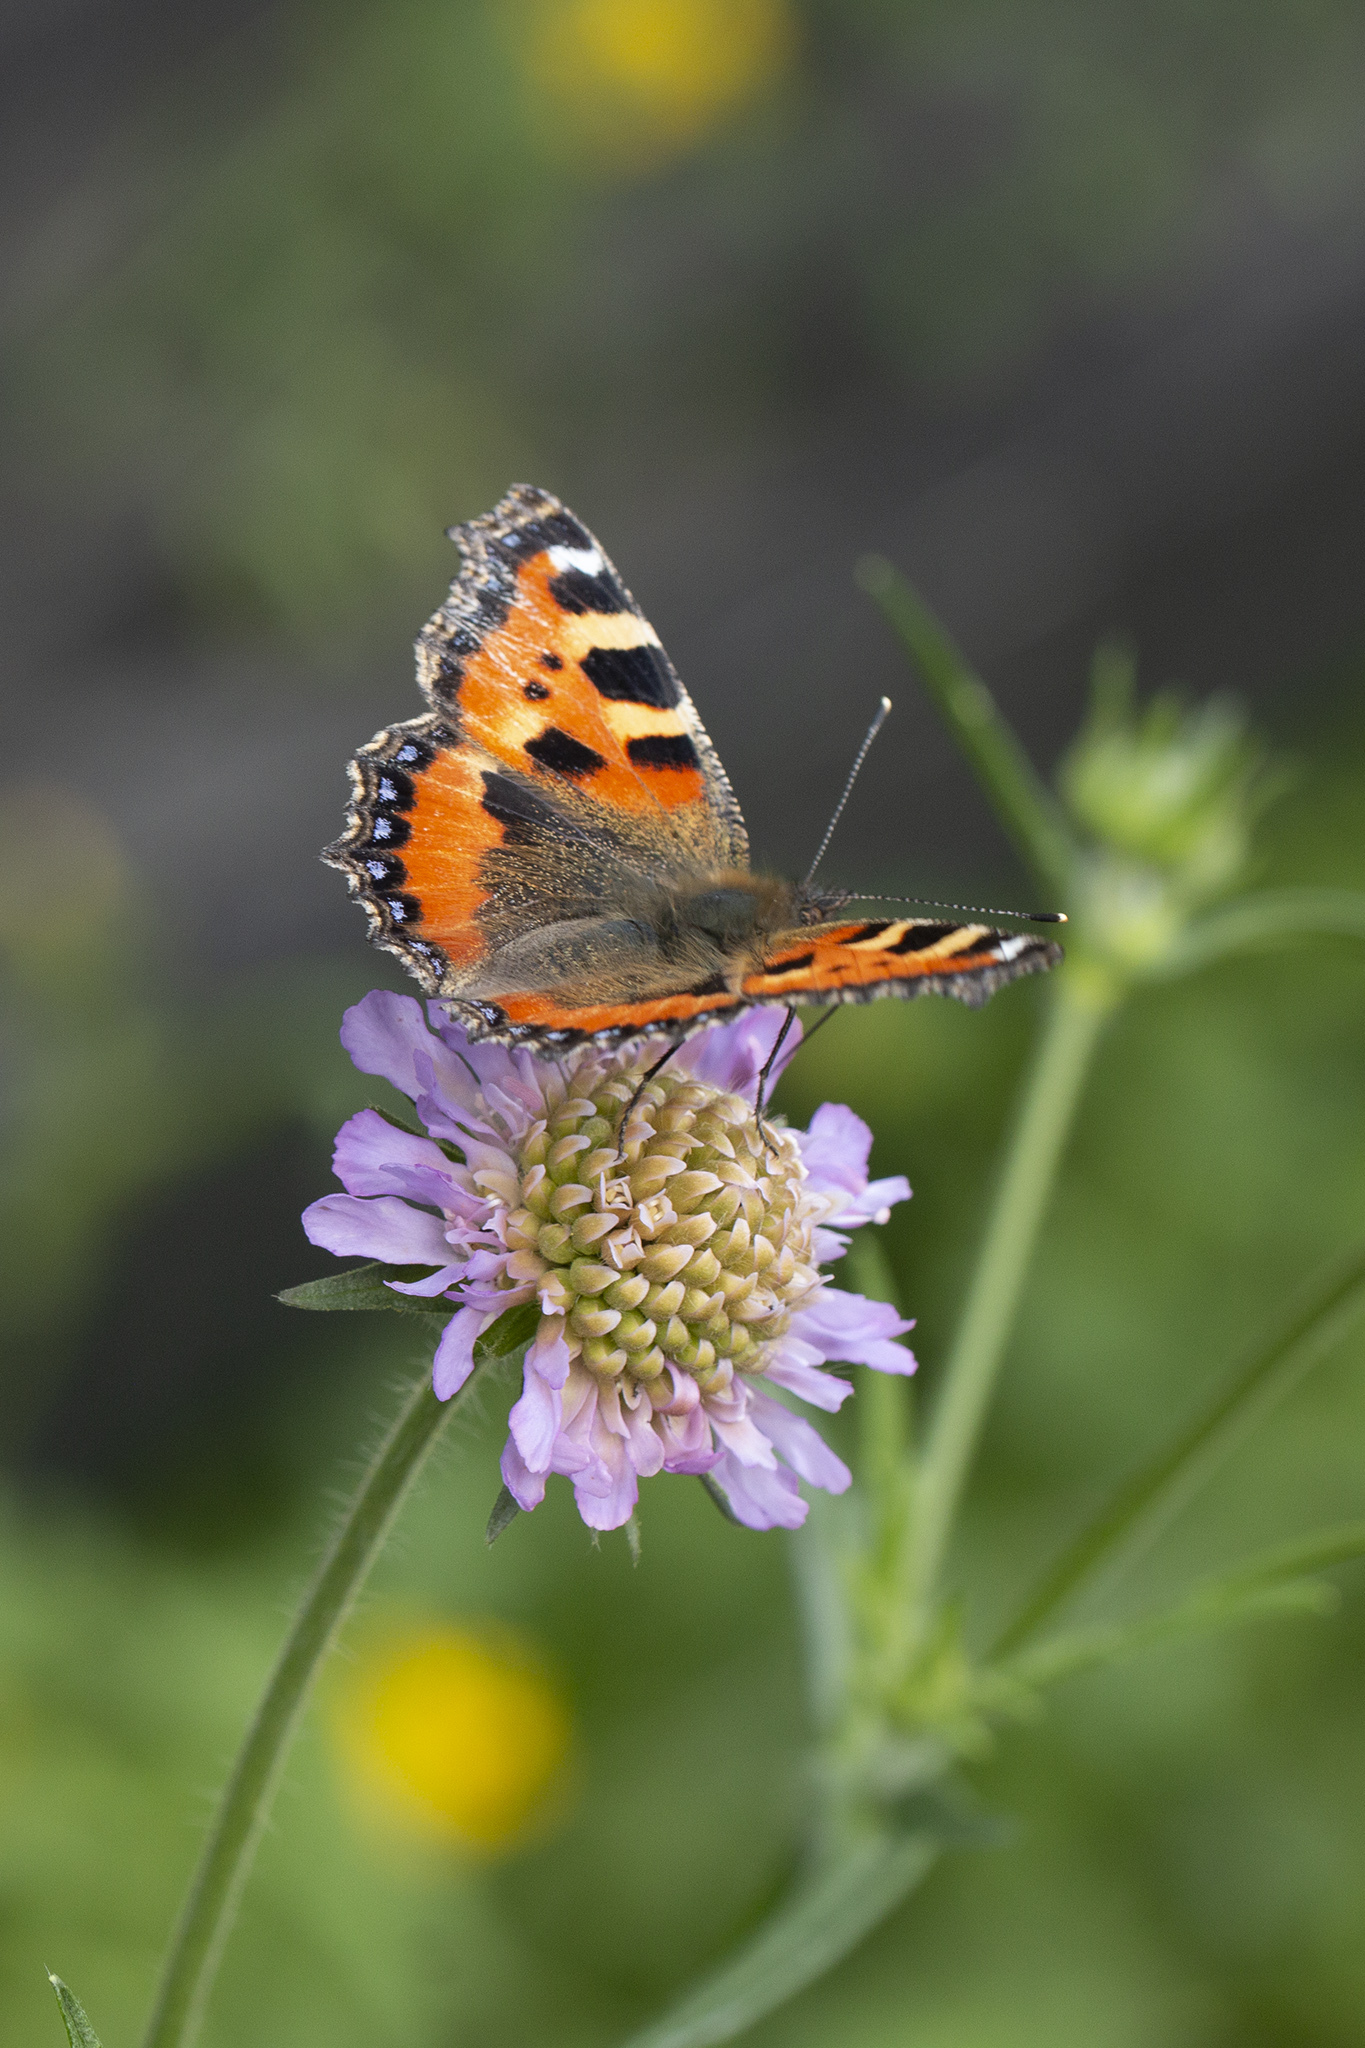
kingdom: Animalia
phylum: Arthropoda
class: Insecta
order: Lepidoptera
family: Nymphalidae
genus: Aglais
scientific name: Aglais urticae
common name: Small tortoiseshell
